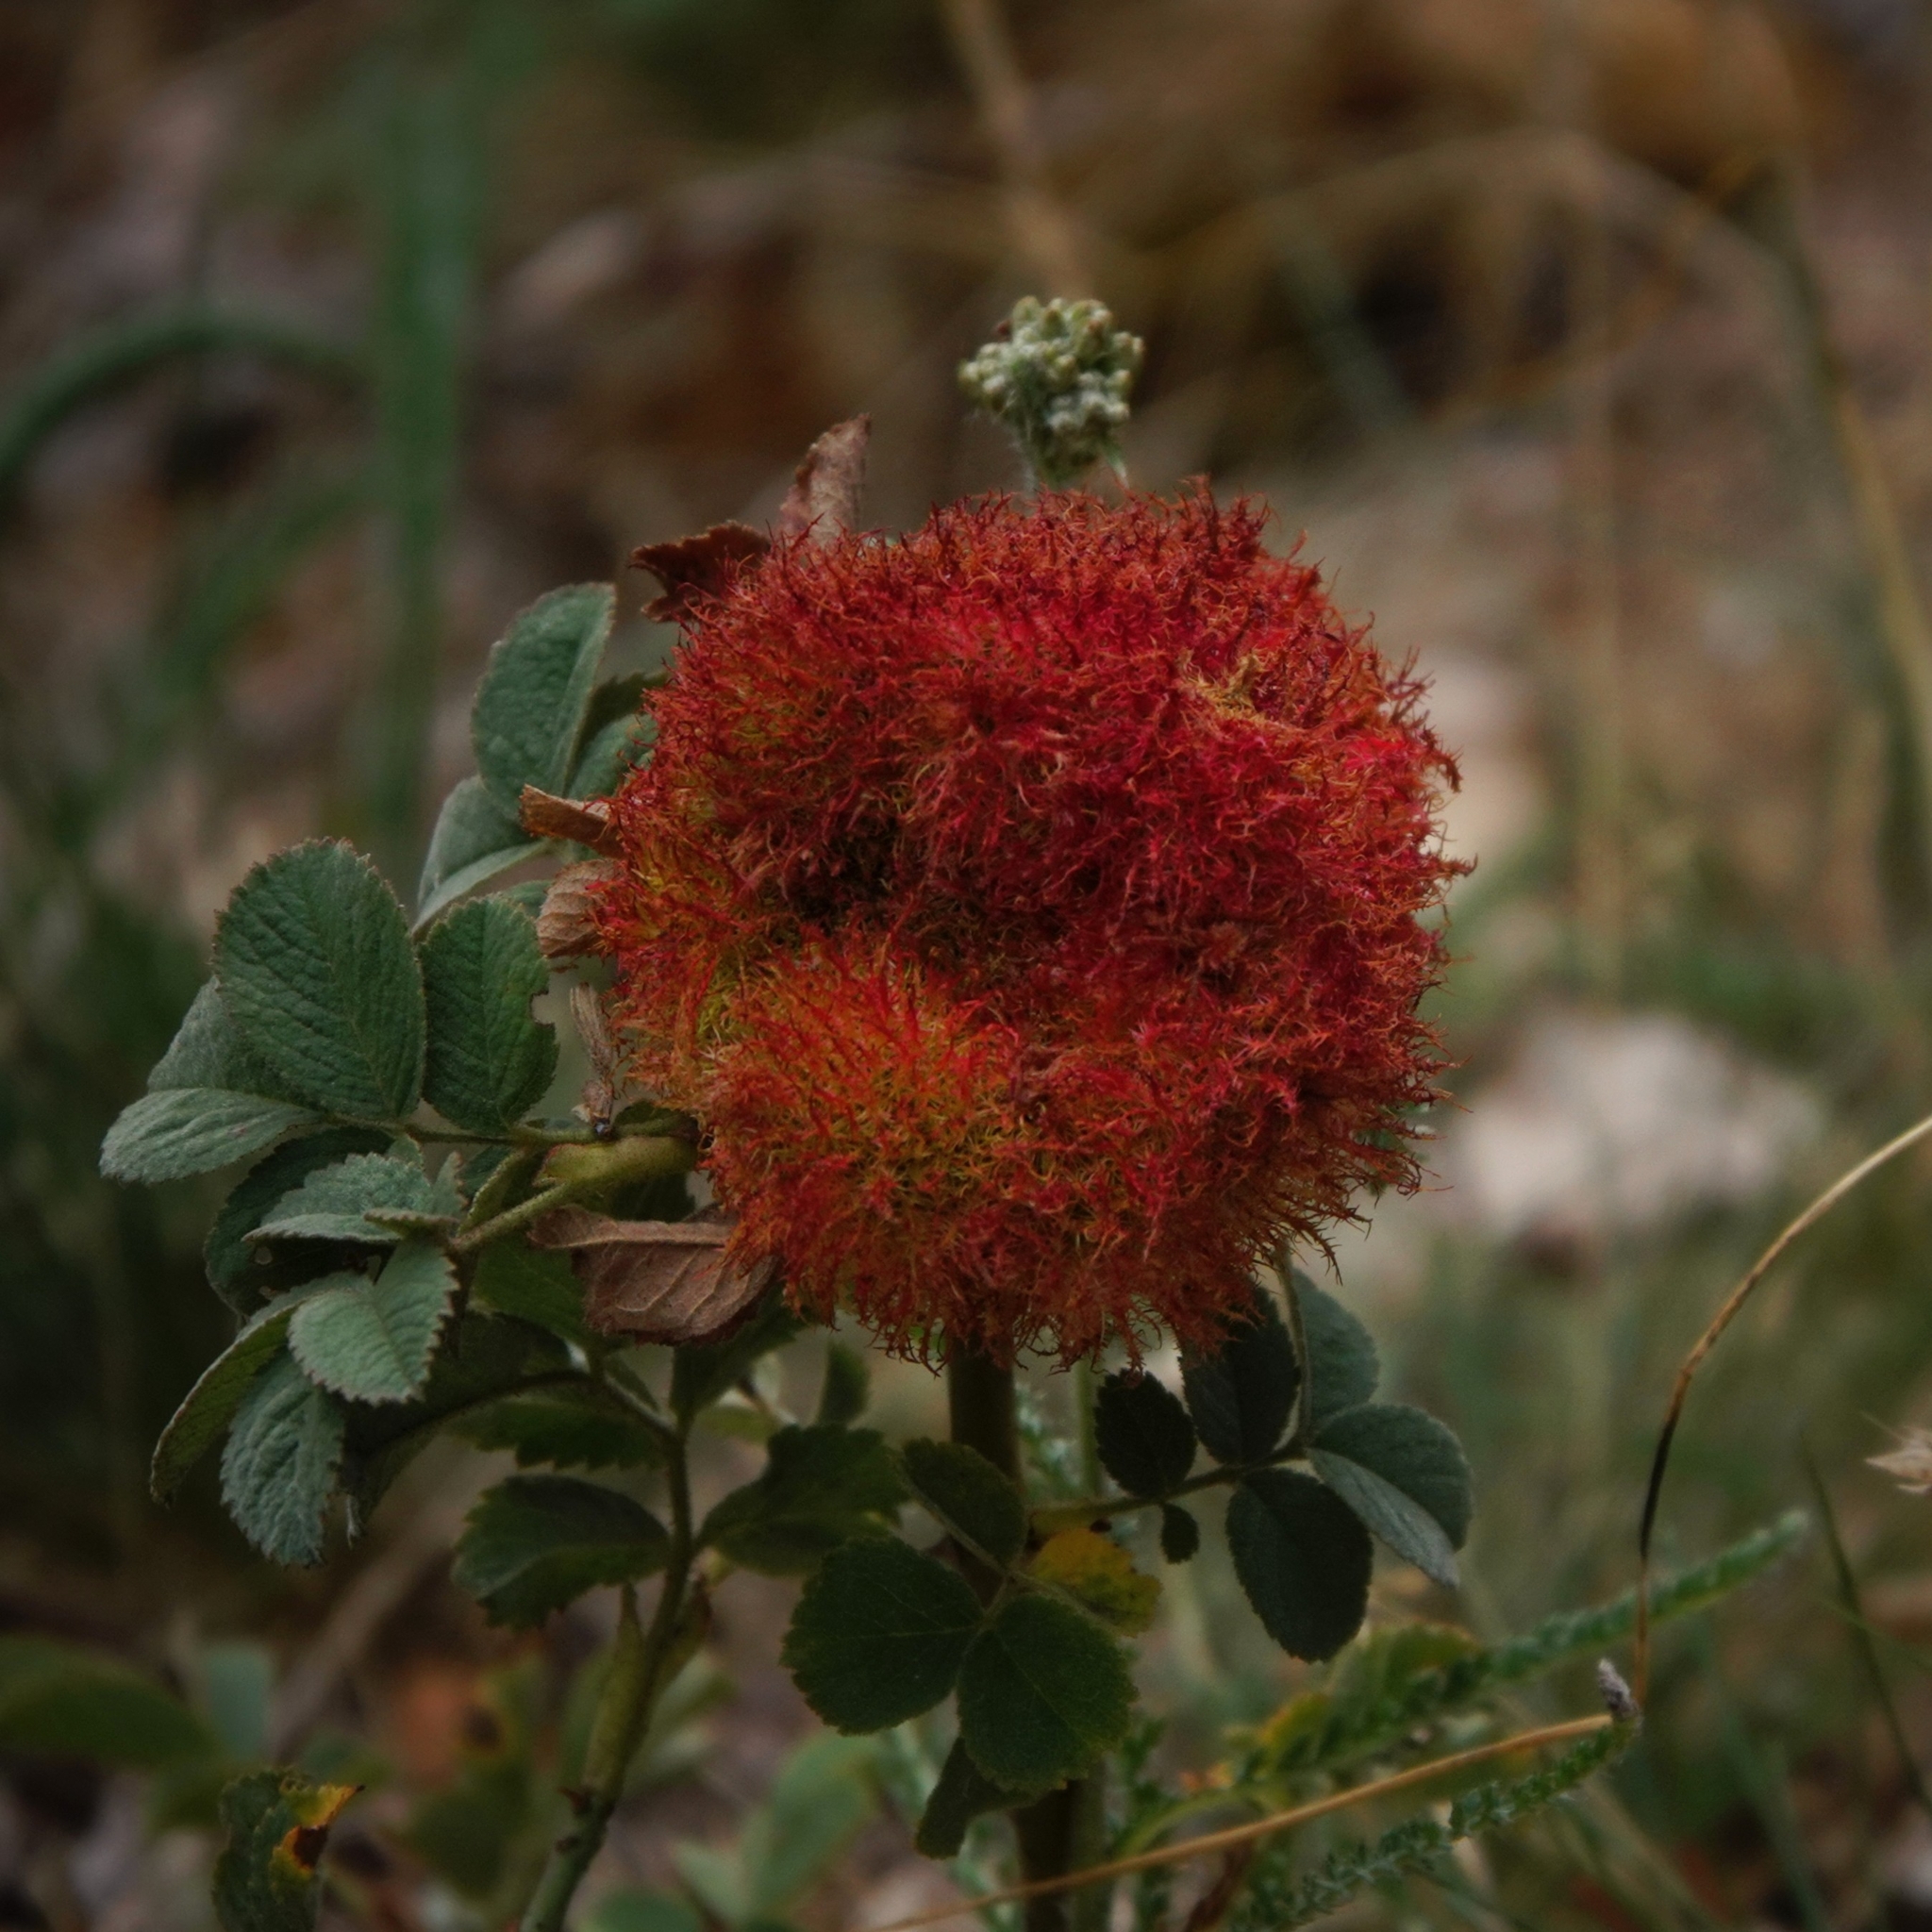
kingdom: Animalia
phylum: Arthropoda
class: Insecta
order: Hymenoptera
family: Cynipidae
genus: Diplolepis
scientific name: Diplolepis rosae
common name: Bedeguar gall
